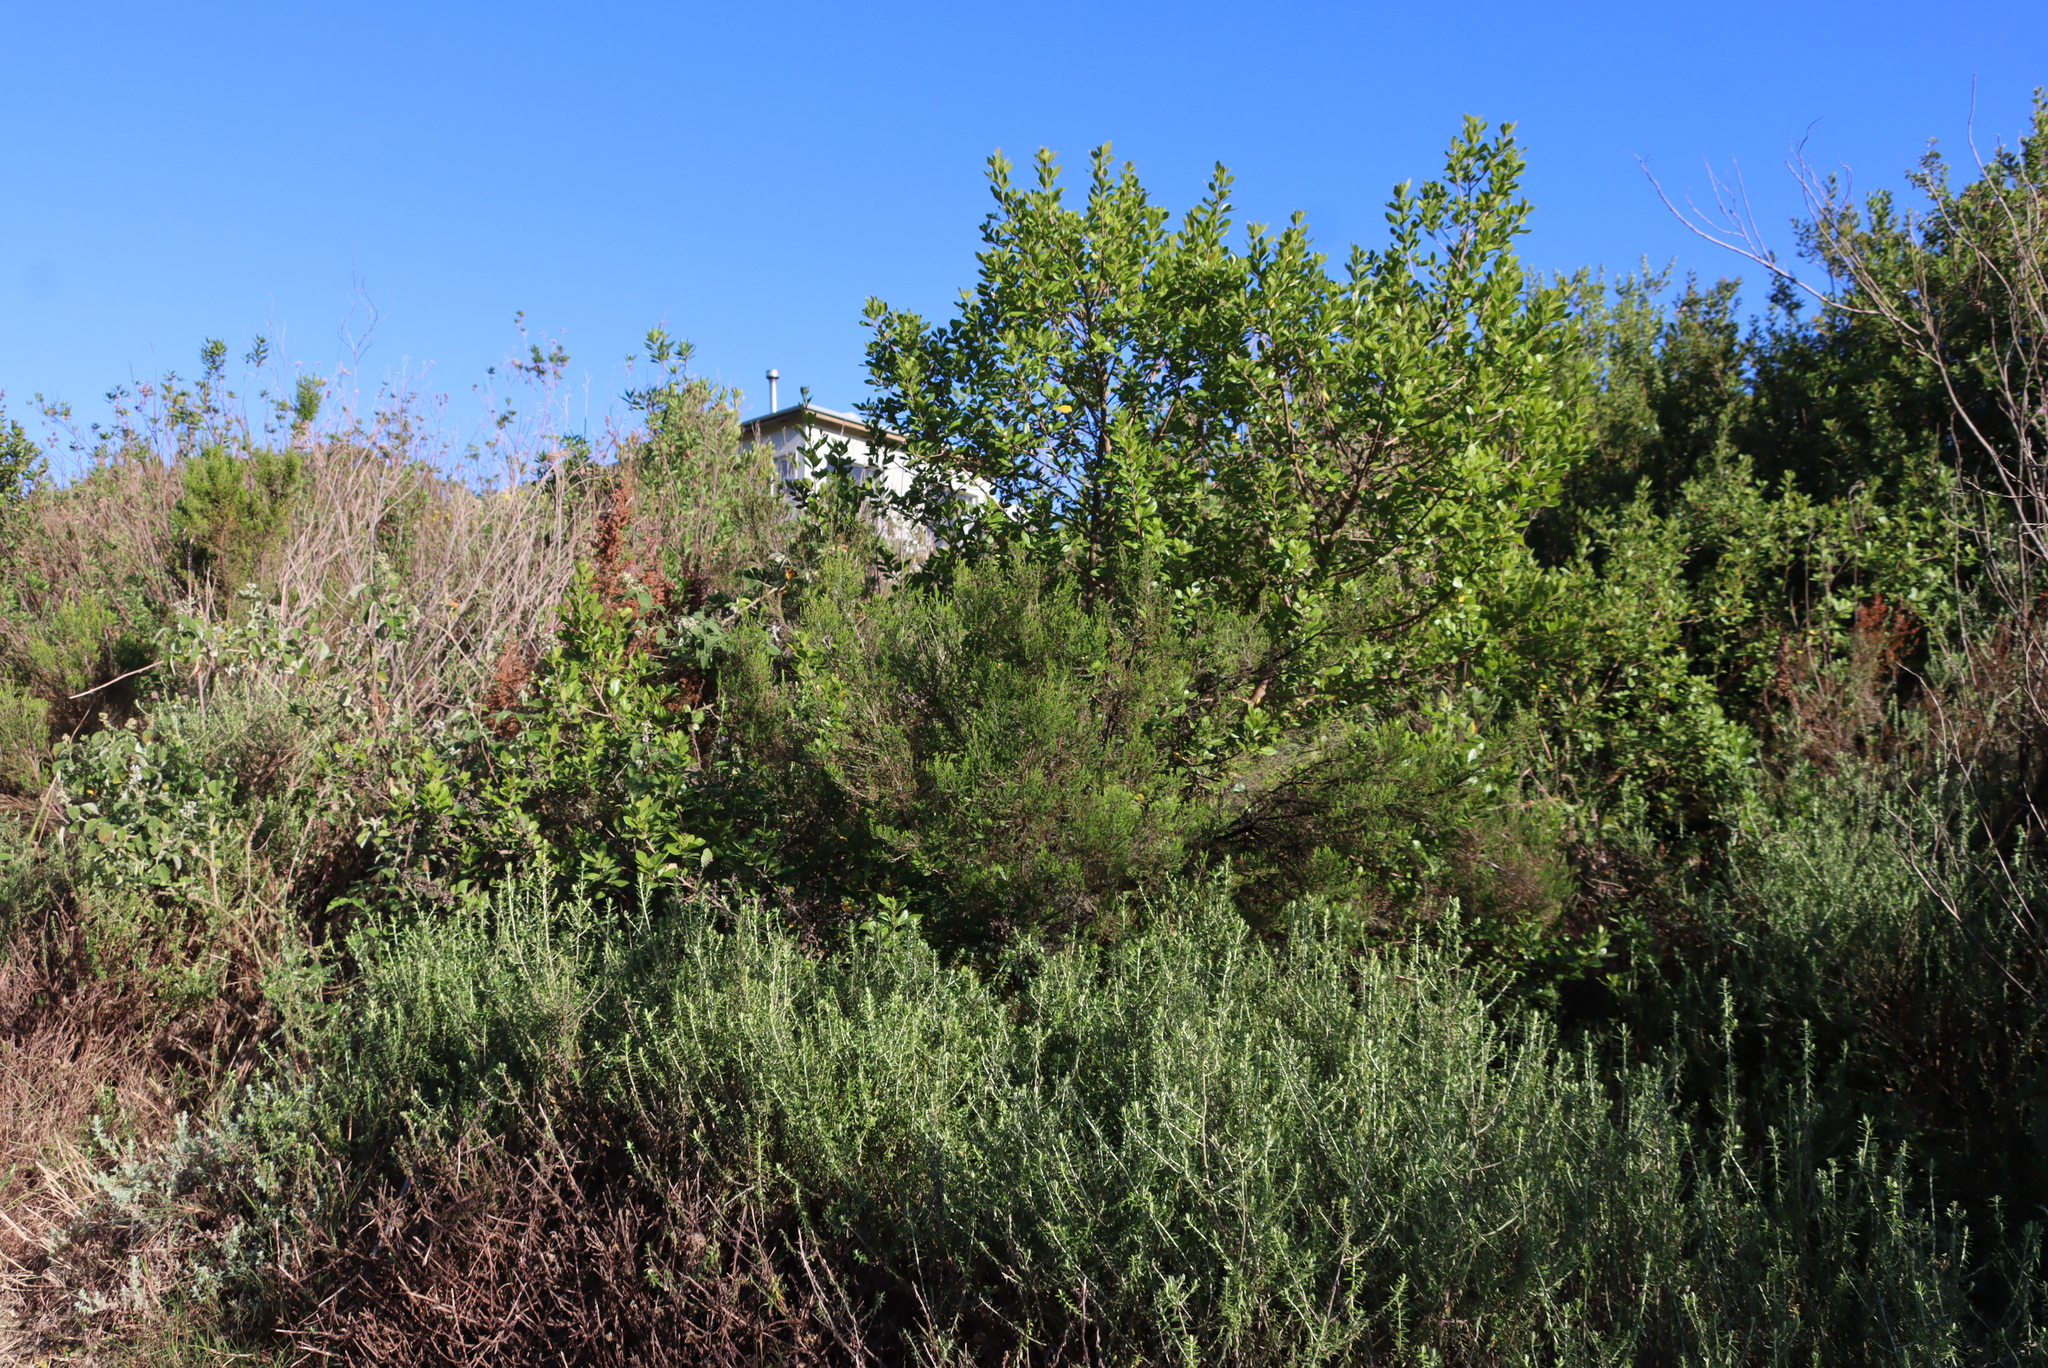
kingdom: Plantae
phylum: Tracheophyta
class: Magnoliopsida
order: Sapindales
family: Anacardiaceae
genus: Searsia
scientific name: Searsia lucida
